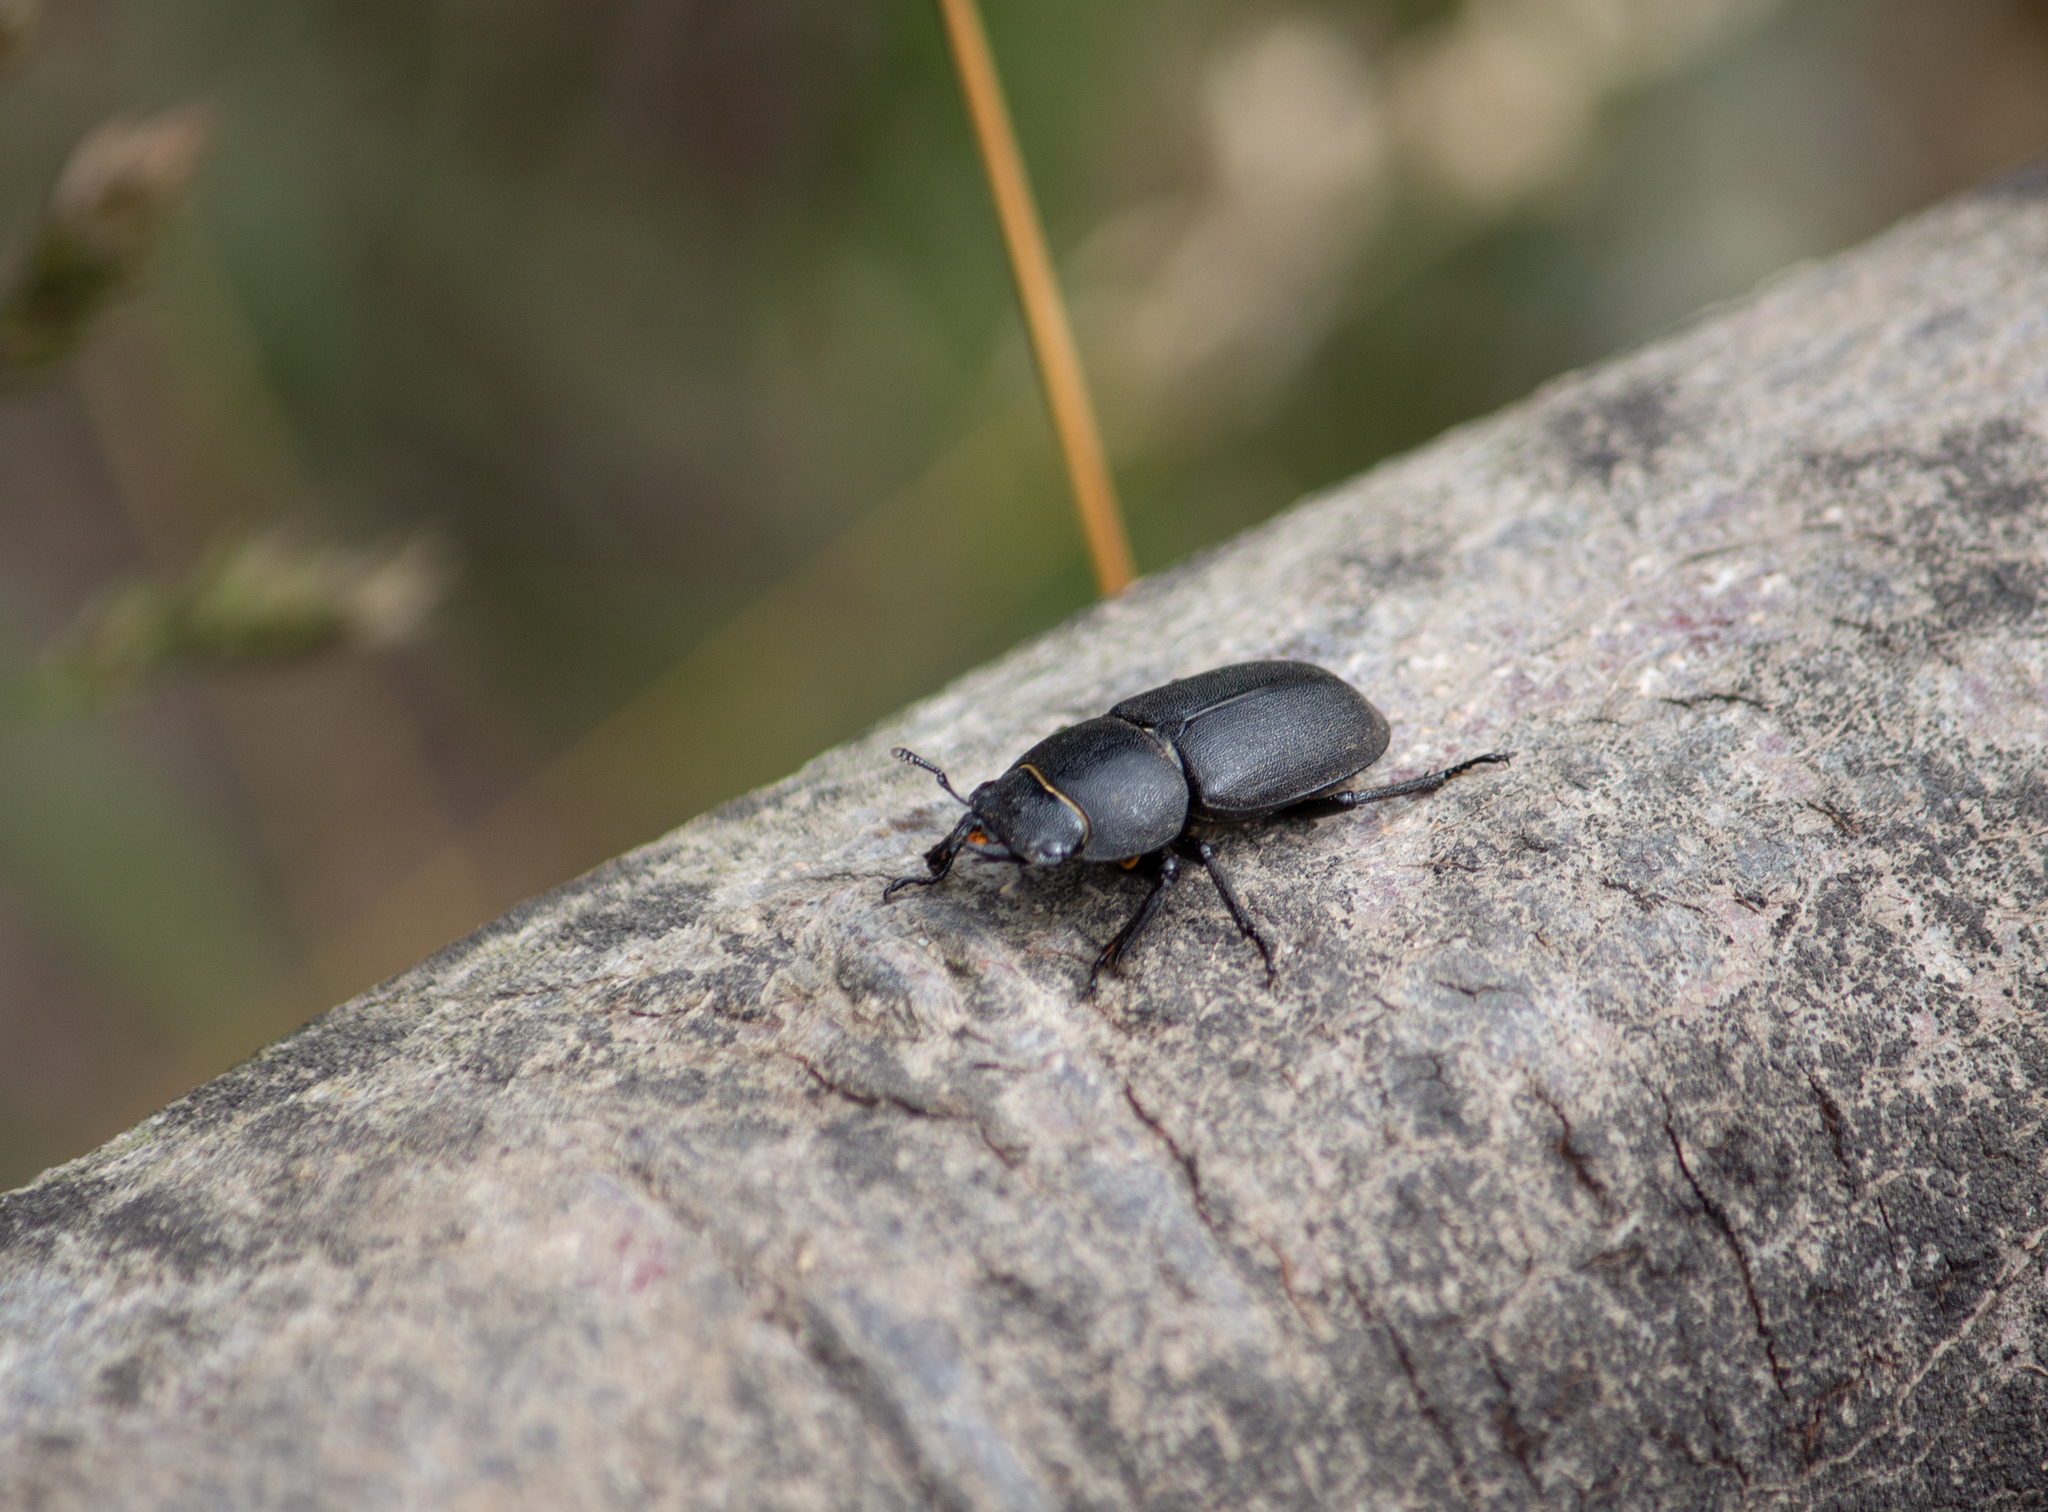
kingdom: Animalia
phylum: Arthropoda
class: Insecta
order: Coleoptera
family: Lucanidae
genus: Dorcus
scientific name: Dorcus parallelipipedus
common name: Lesser stag beetle
